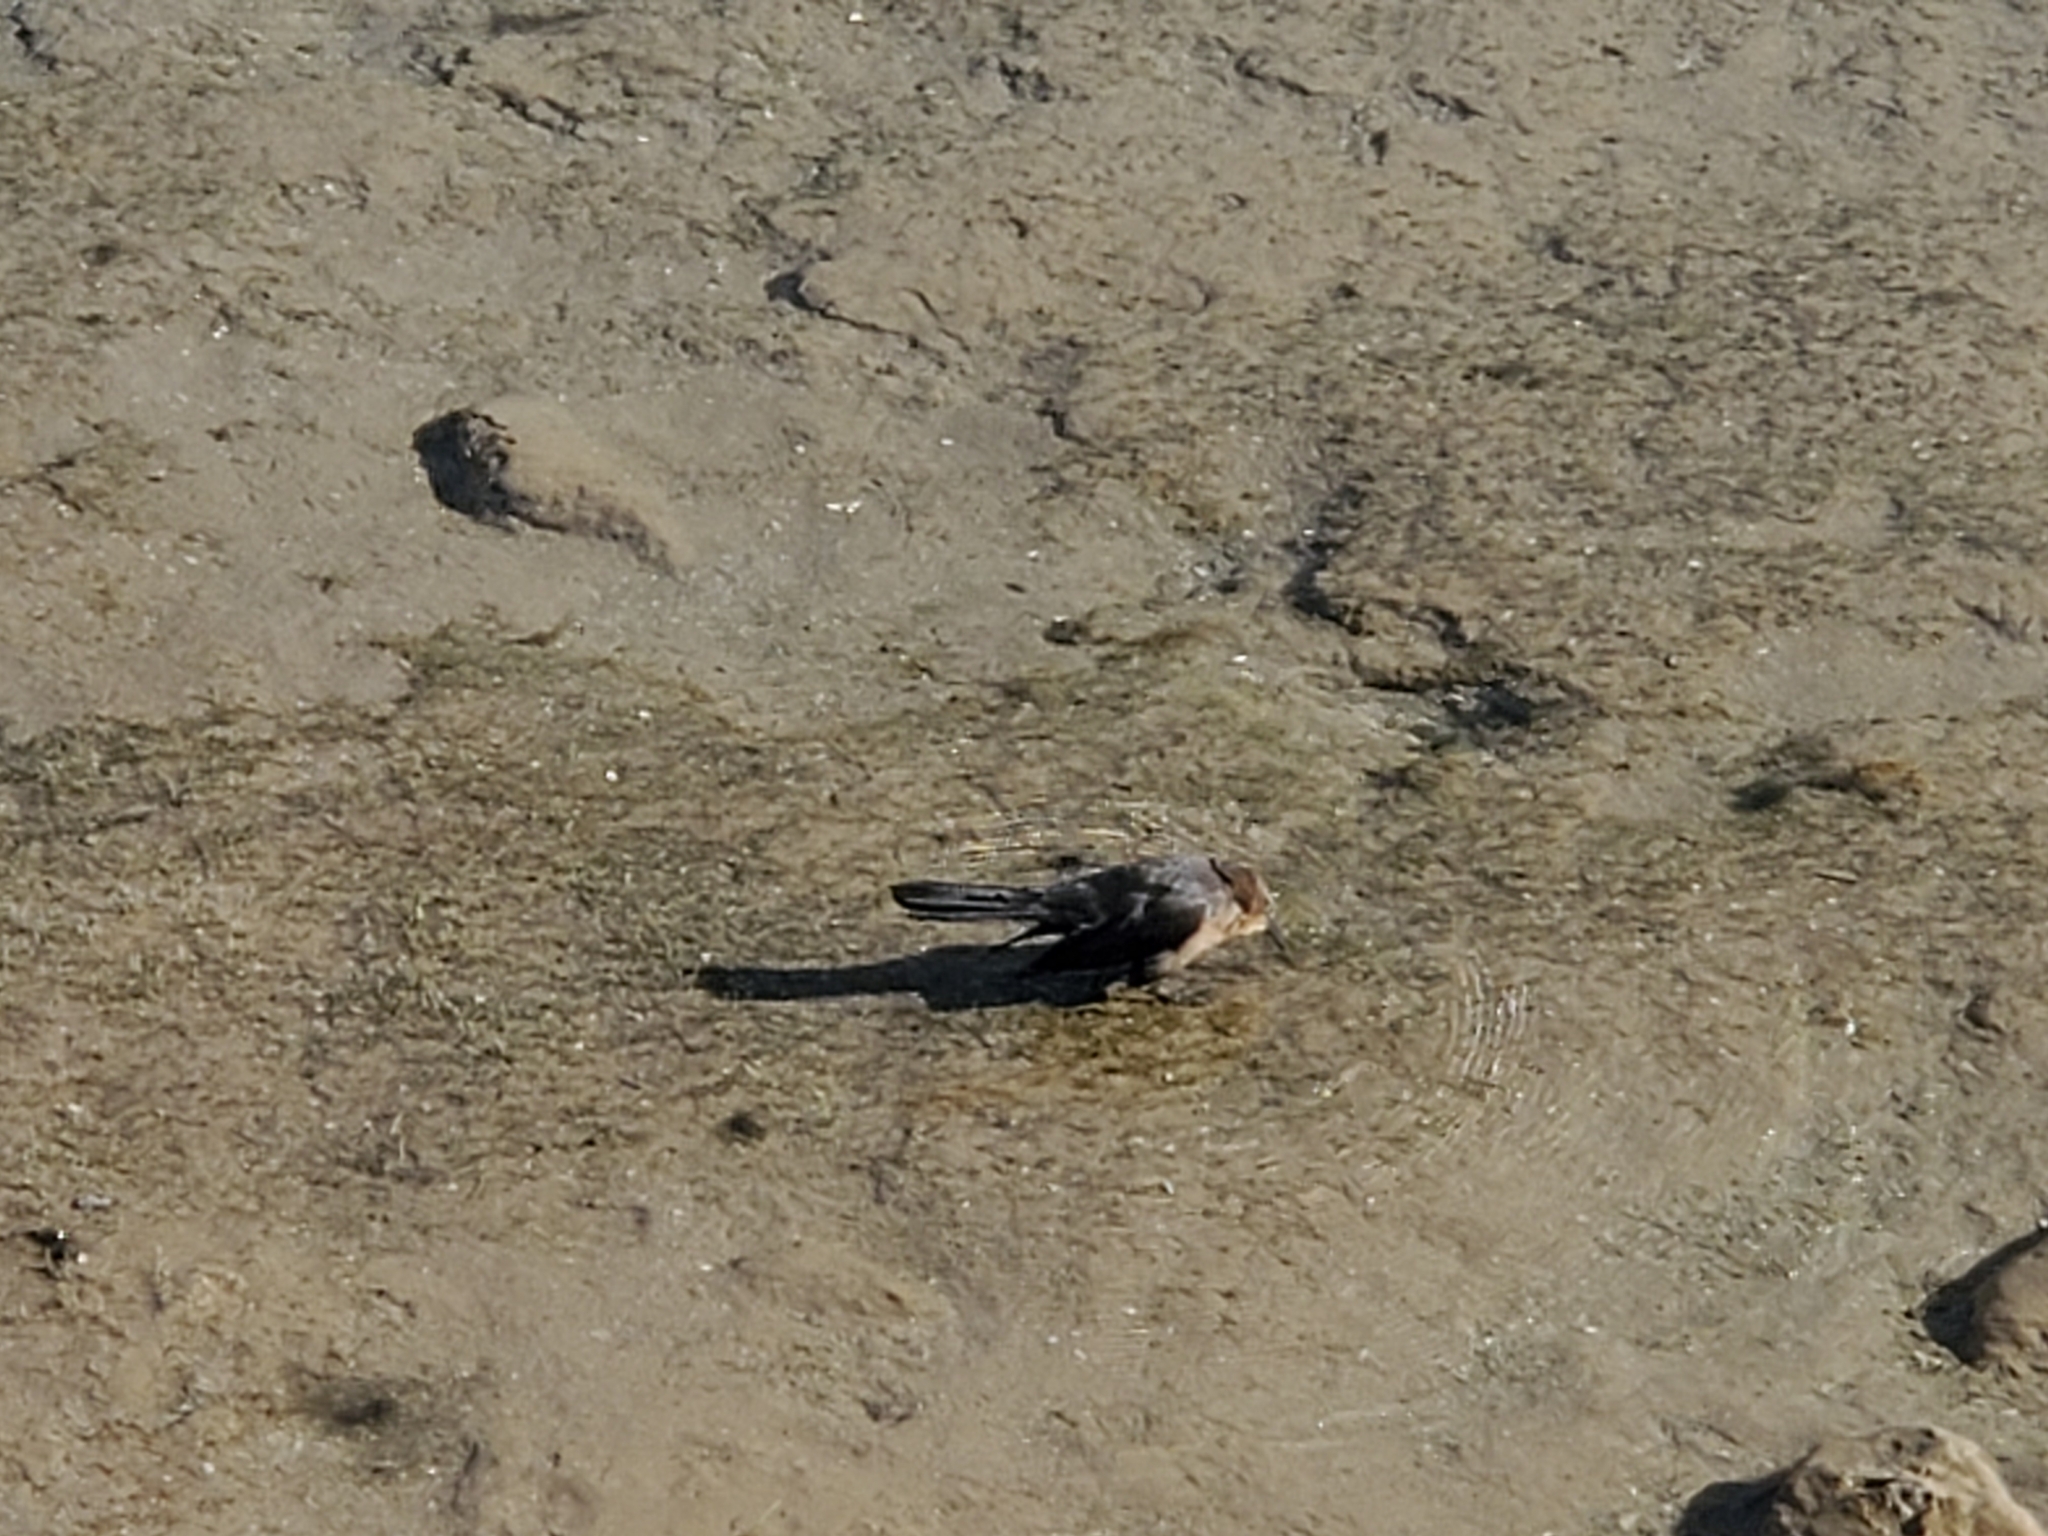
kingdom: Animalia
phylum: Chordata
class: Aves
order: Passeriformes
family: Icteridae
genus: Quiscalus
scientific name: Quiscalus mexicanus
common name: Great-tailed grackle
